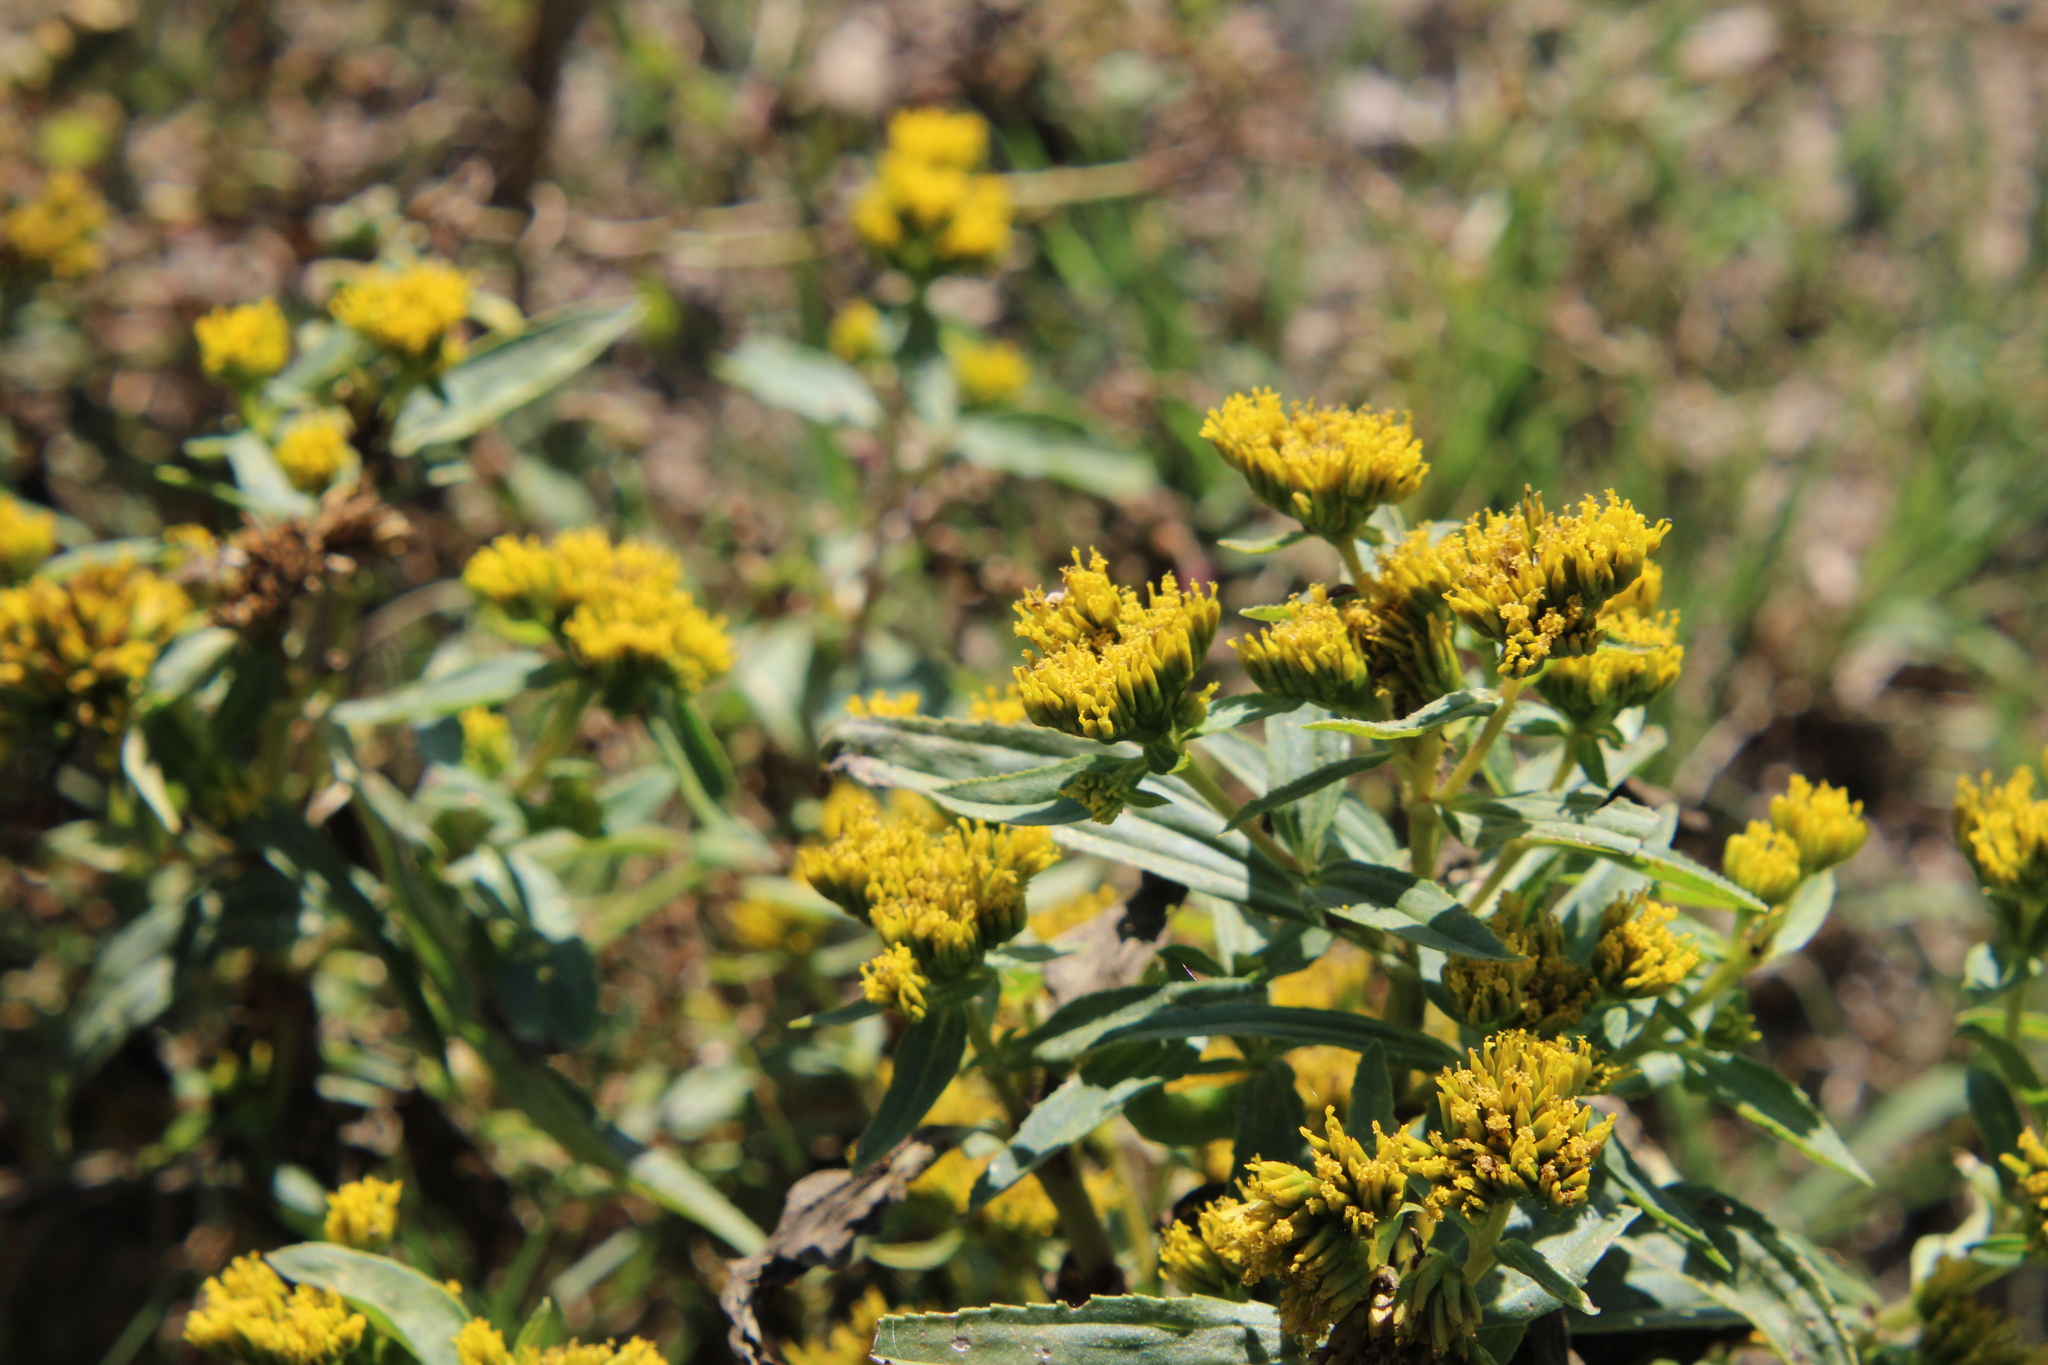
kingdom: Plantae
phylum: Tracheophyta
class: Magnoliopsida
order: Asterales
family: Asteraceae
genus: Flaveria
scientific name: Flaveria bidentis
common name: Coastal plain yellowtops
